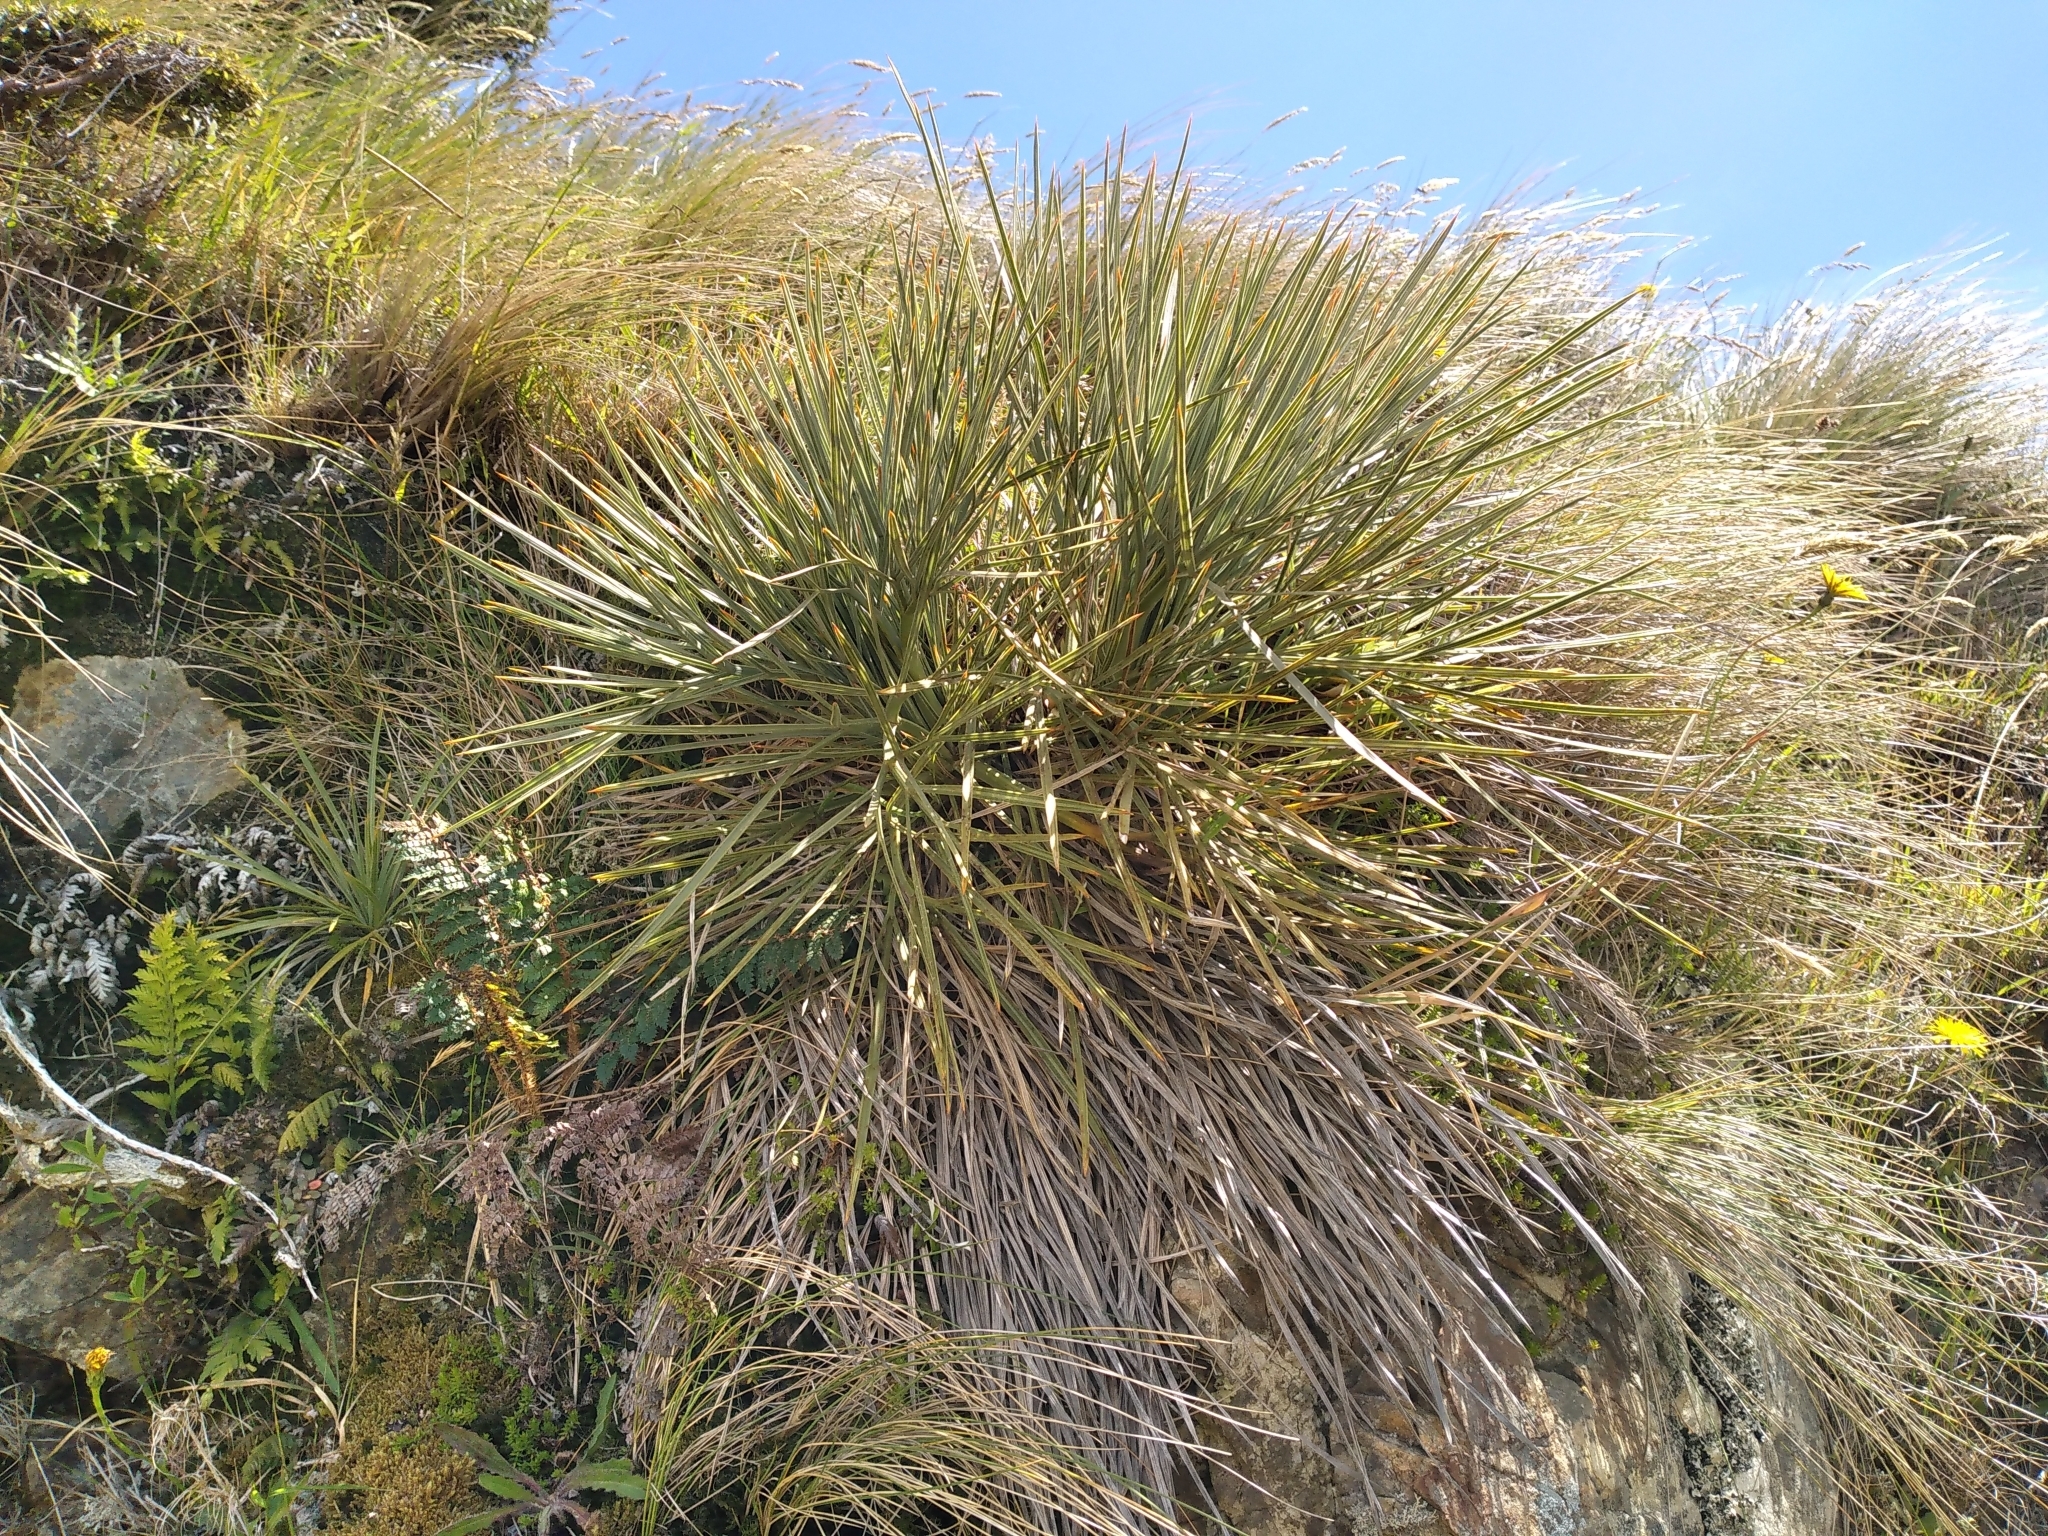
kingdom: Plantae
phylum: Tracheophyta
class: Magnoliopsida
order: Apiales
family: Apiaceae
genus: Aciphylla
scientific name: Aciphylla squarrosa
